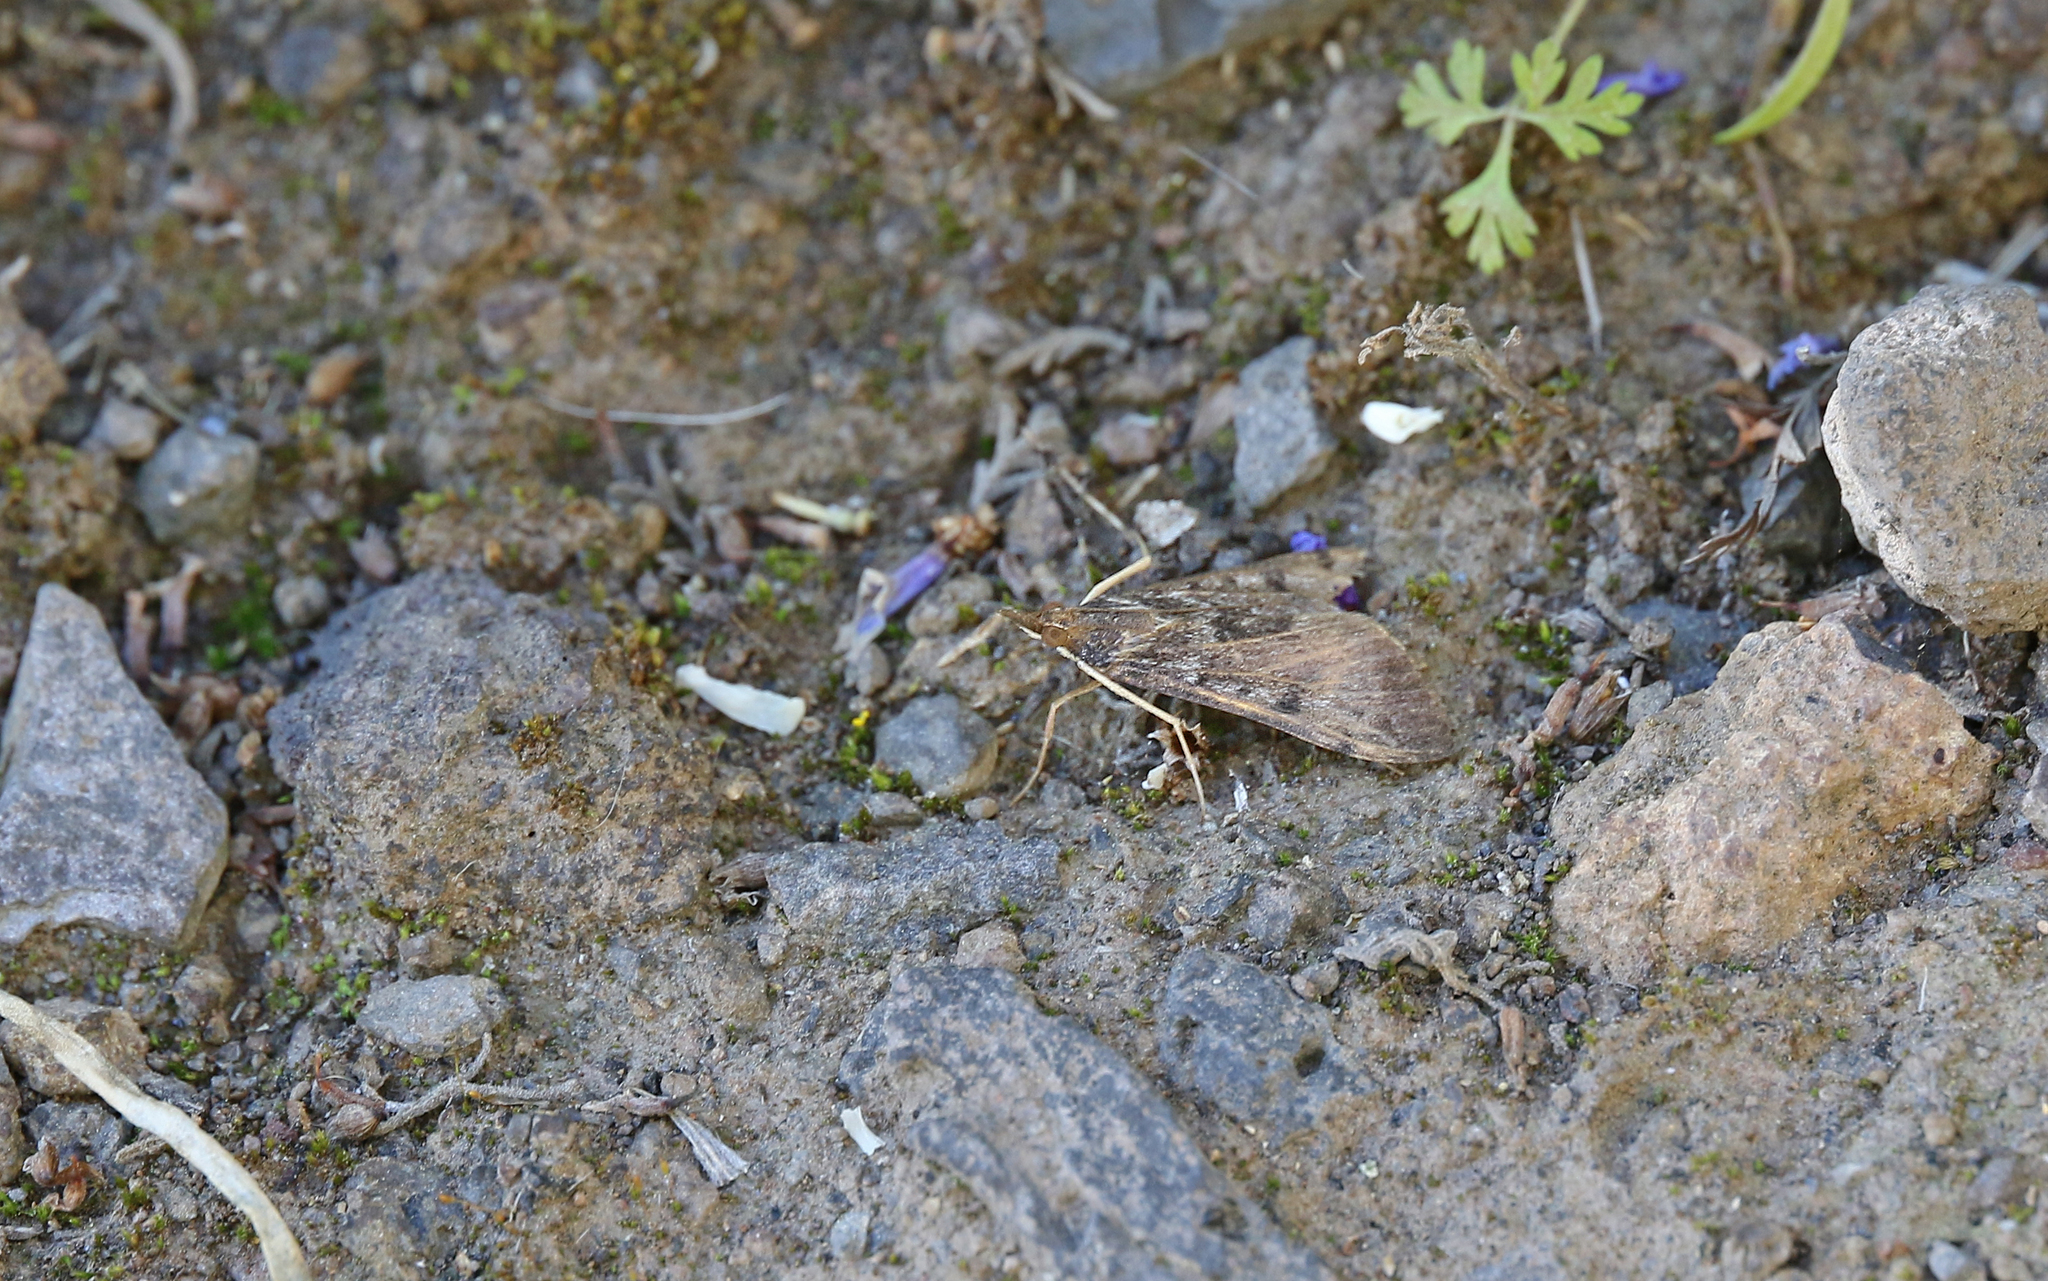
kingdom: Animalia
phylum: Arthropoda
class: Insecta
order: Lepidoptera
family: Crambidae
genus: Uresiphita
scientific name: Uresiphita gilvata
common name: Yellow-underwing pearl
